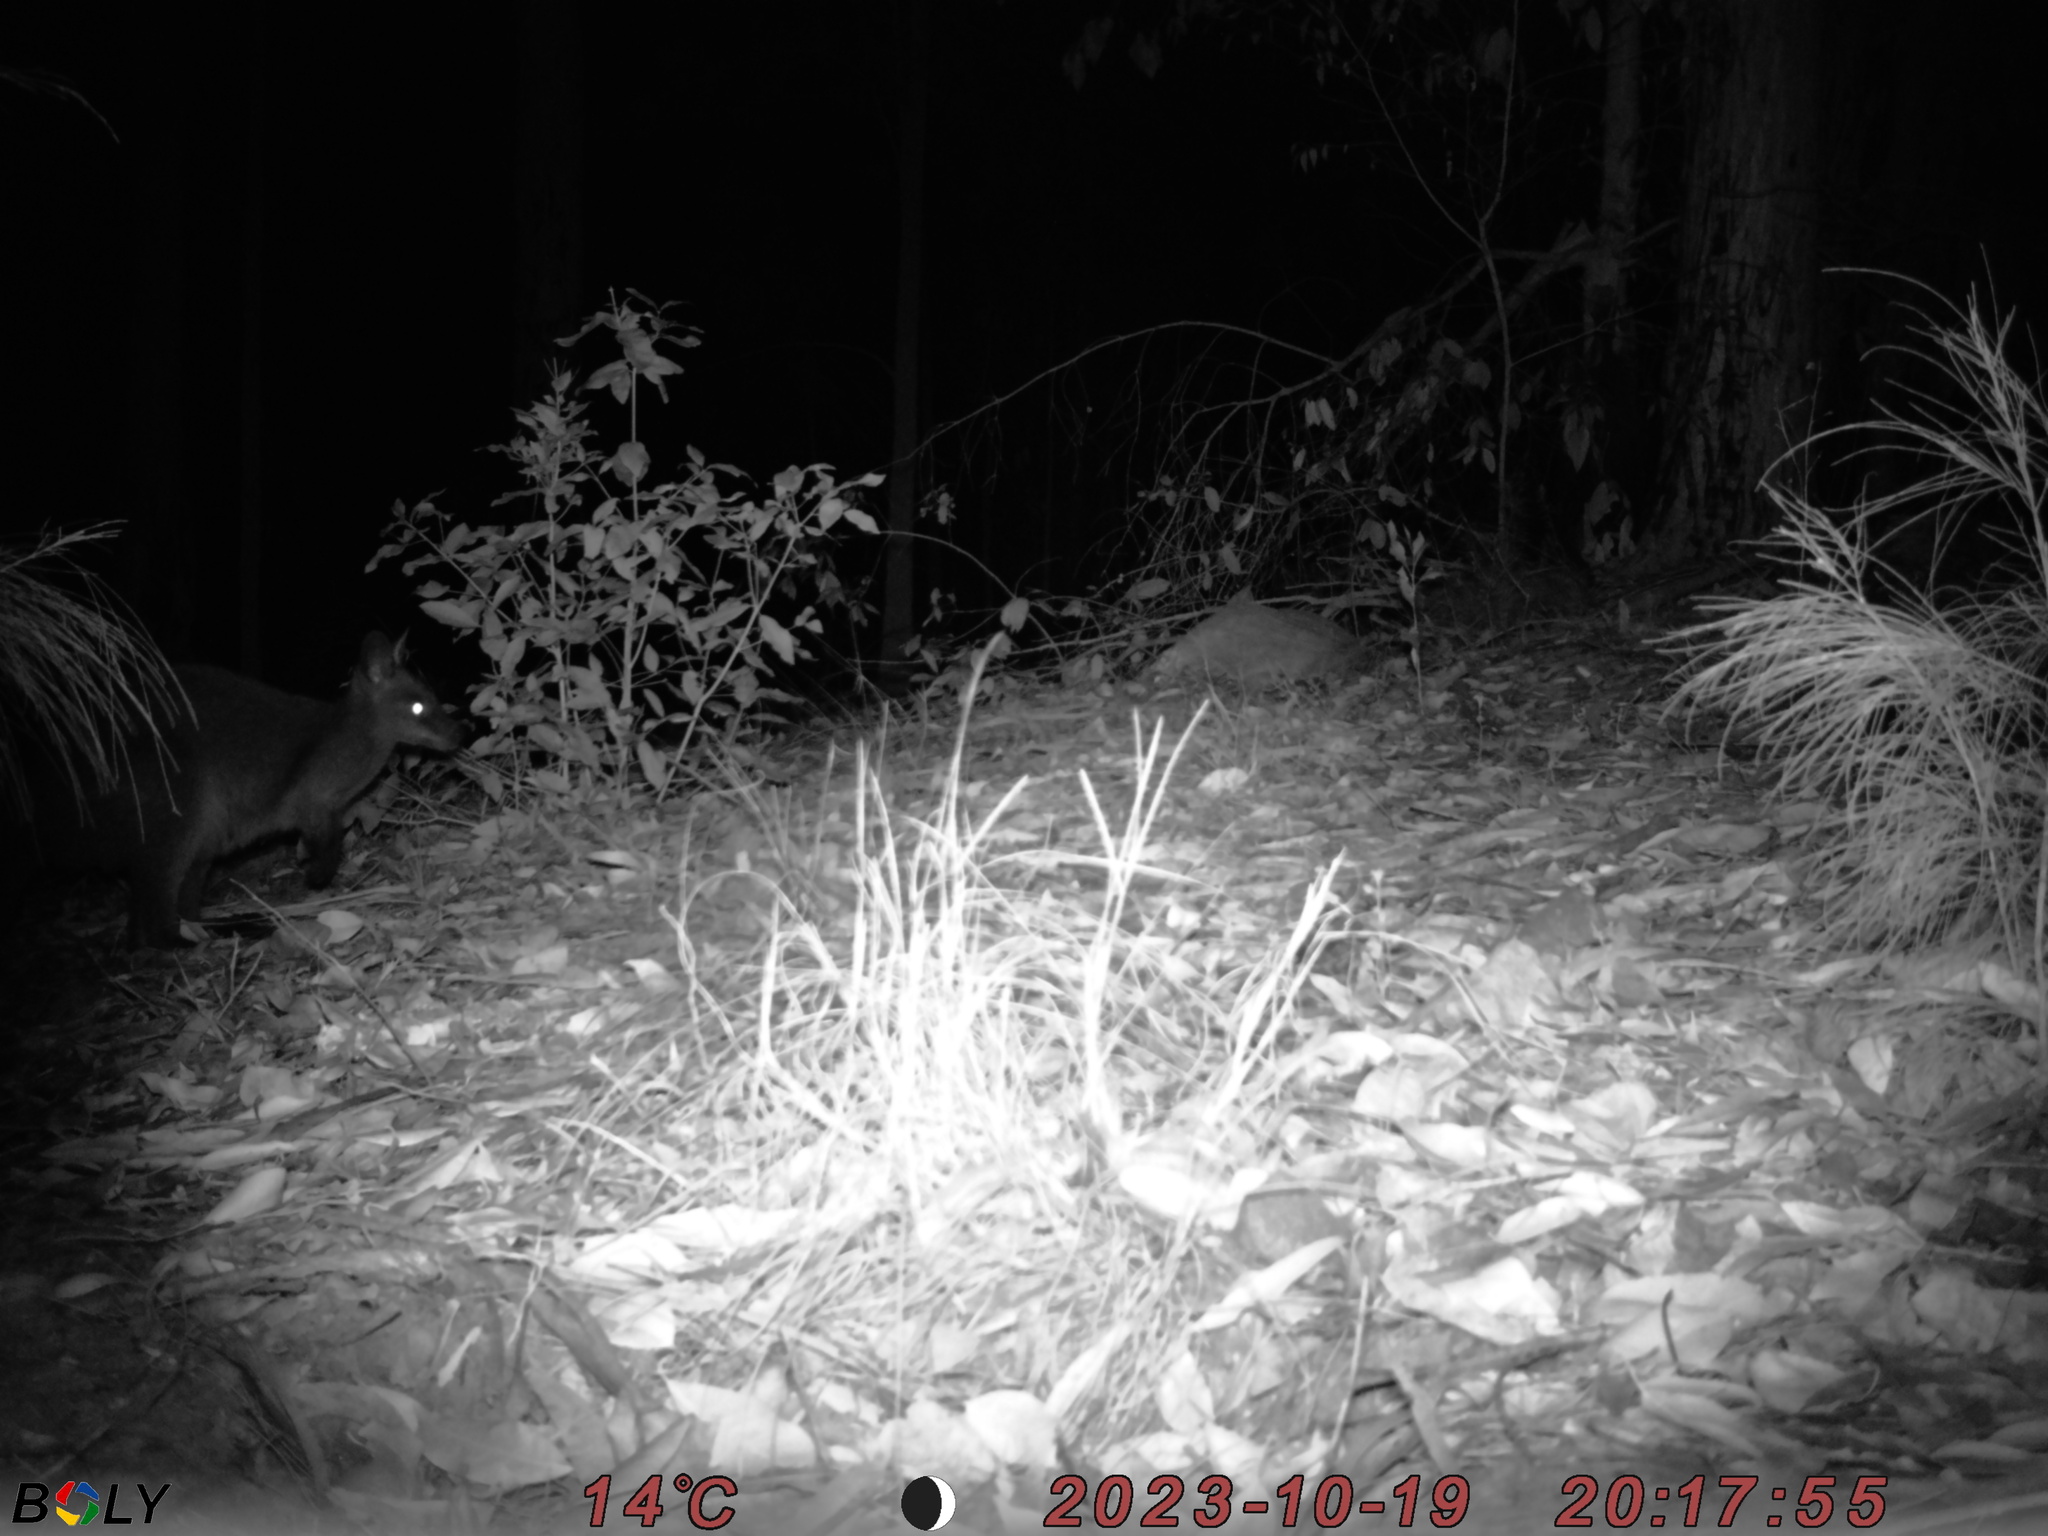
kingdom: Animalia
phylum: Chordata
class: Mammalia
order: Diprotodontia
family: Macropodidae
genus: Wallabia
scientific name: Wallabia bicolor
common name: Swamp wallaby
